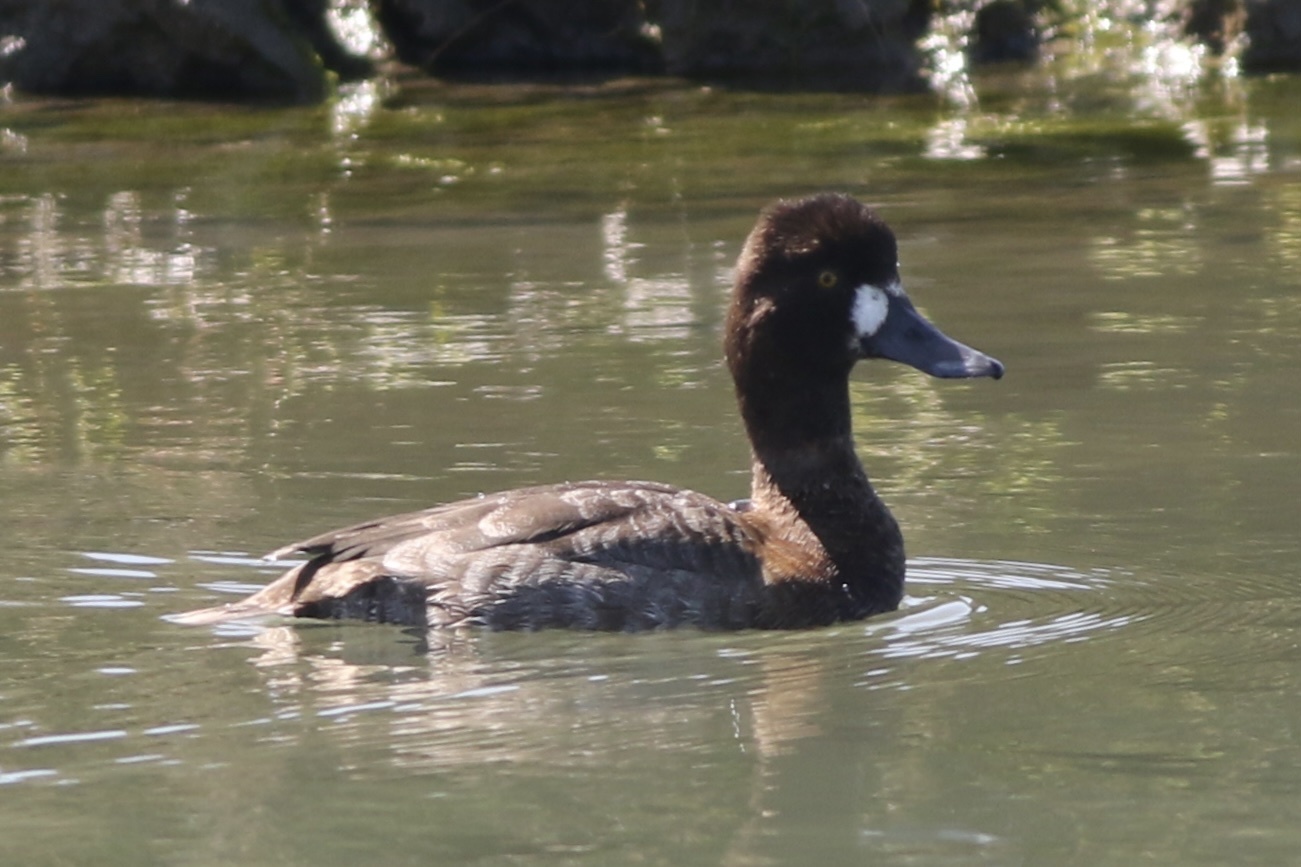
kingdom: Animalia
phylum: Chordata
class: Aves
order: Anseriformes
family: Anatidae
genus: Aythya
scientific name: Aythya marila
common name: Greater scaup
